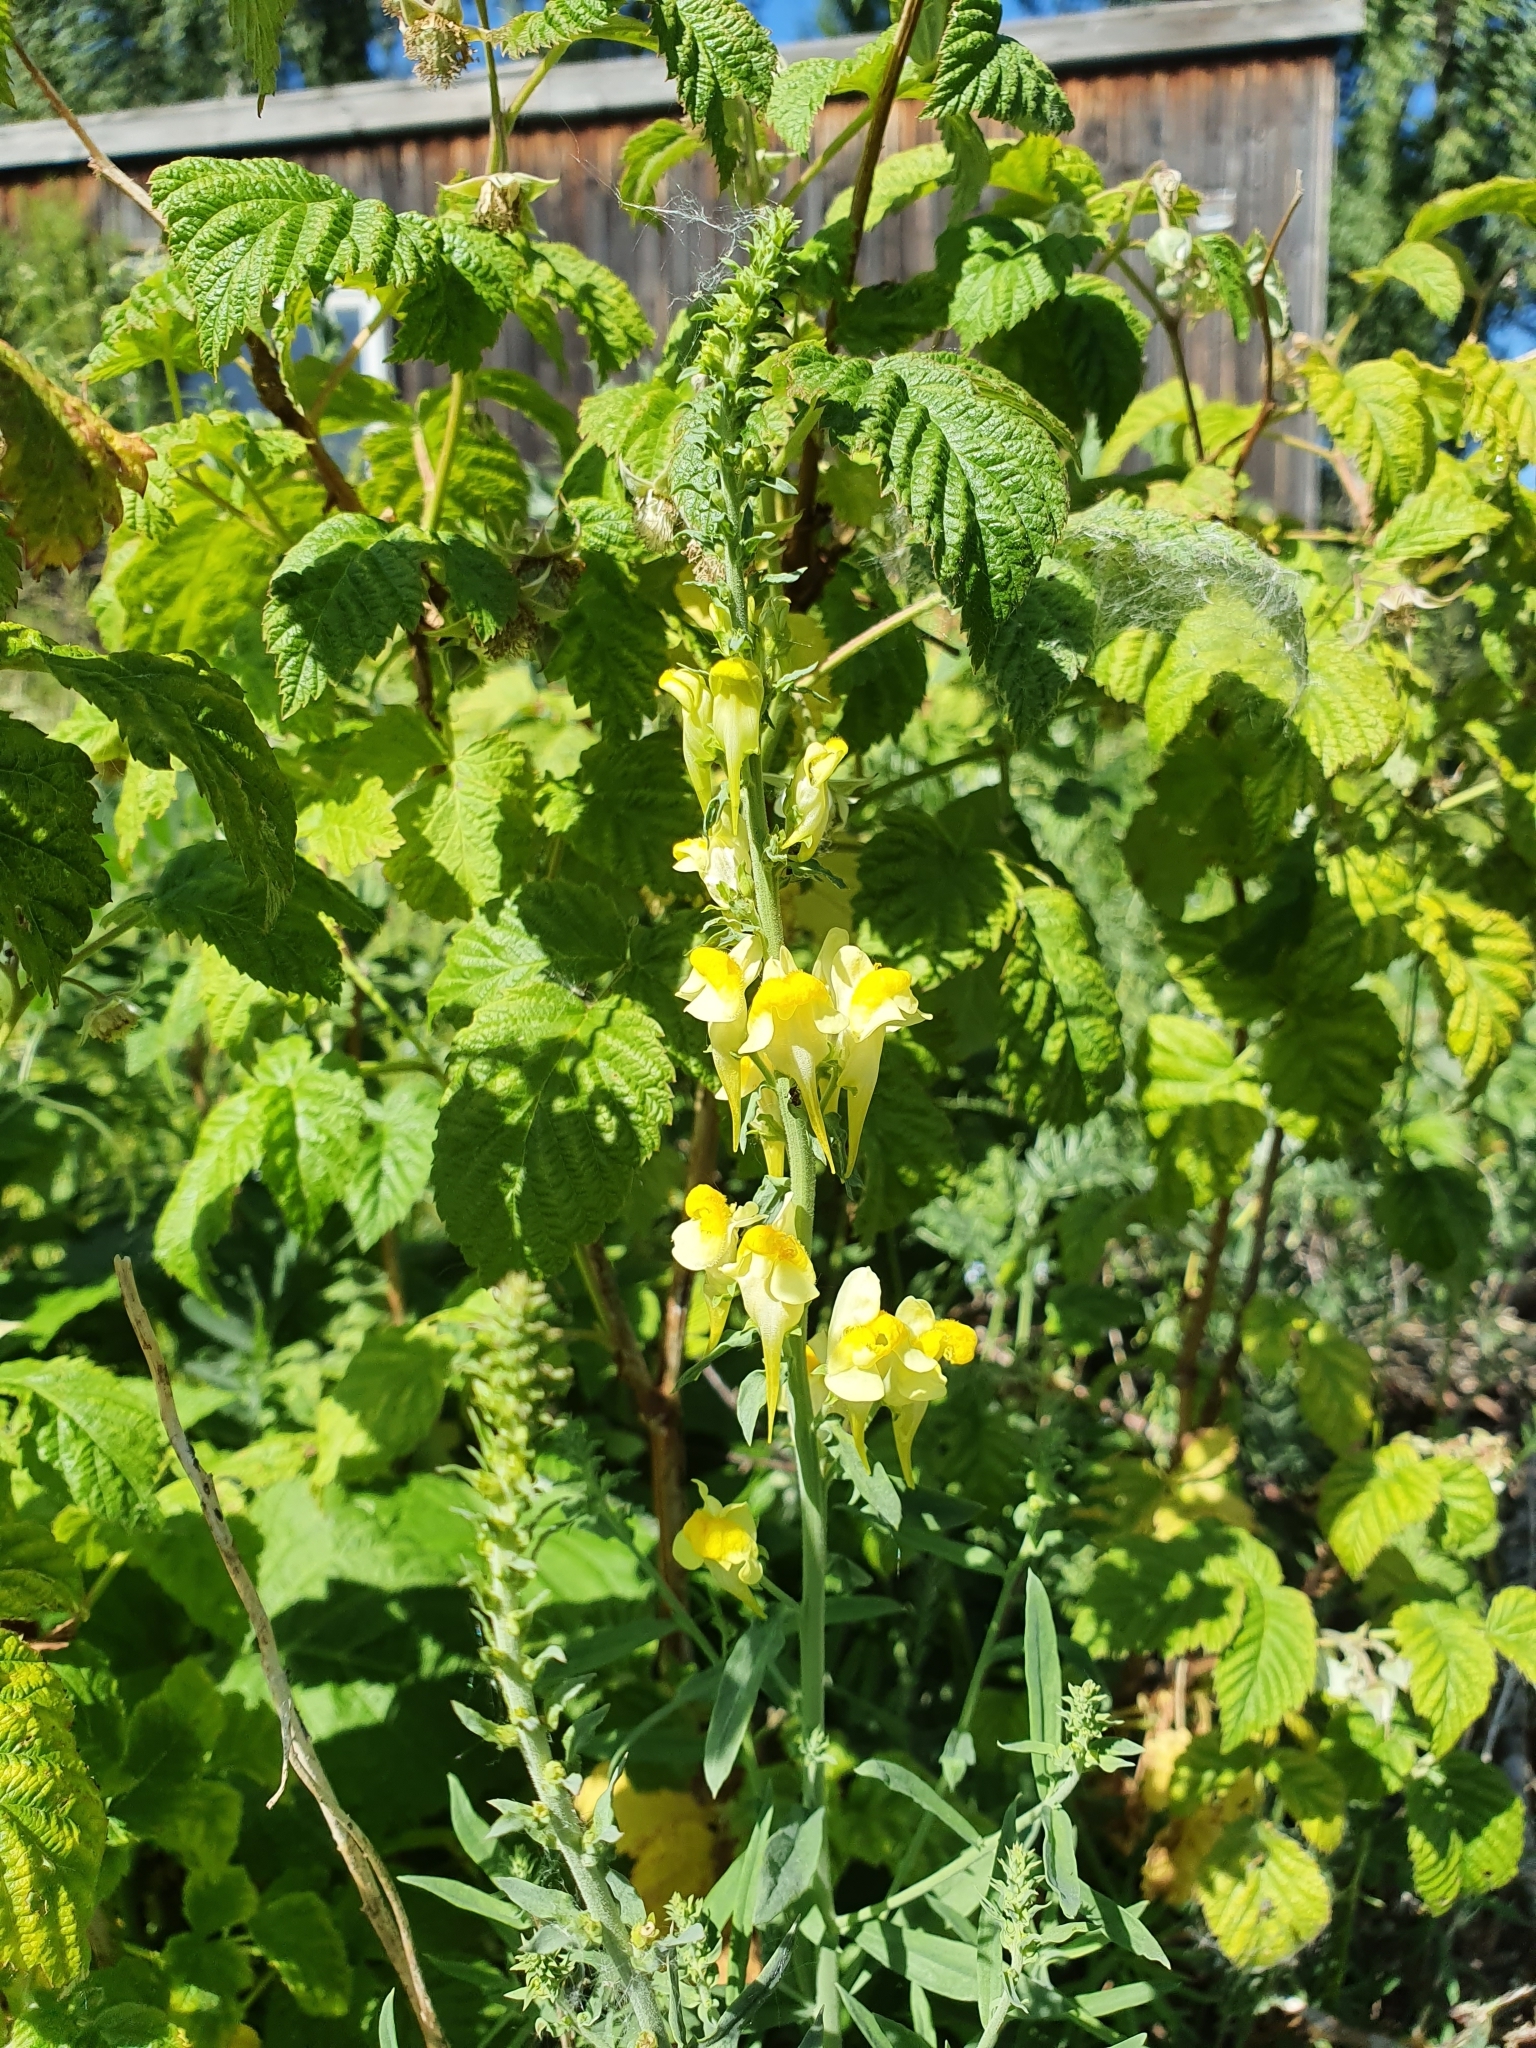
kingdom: Plantae
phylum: Tracheophyta
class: Magnoliopsida
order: Lamiales
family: Plantaginaceae
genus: Linaria
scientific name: Linaria vulgaris
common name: Butter and eggs
